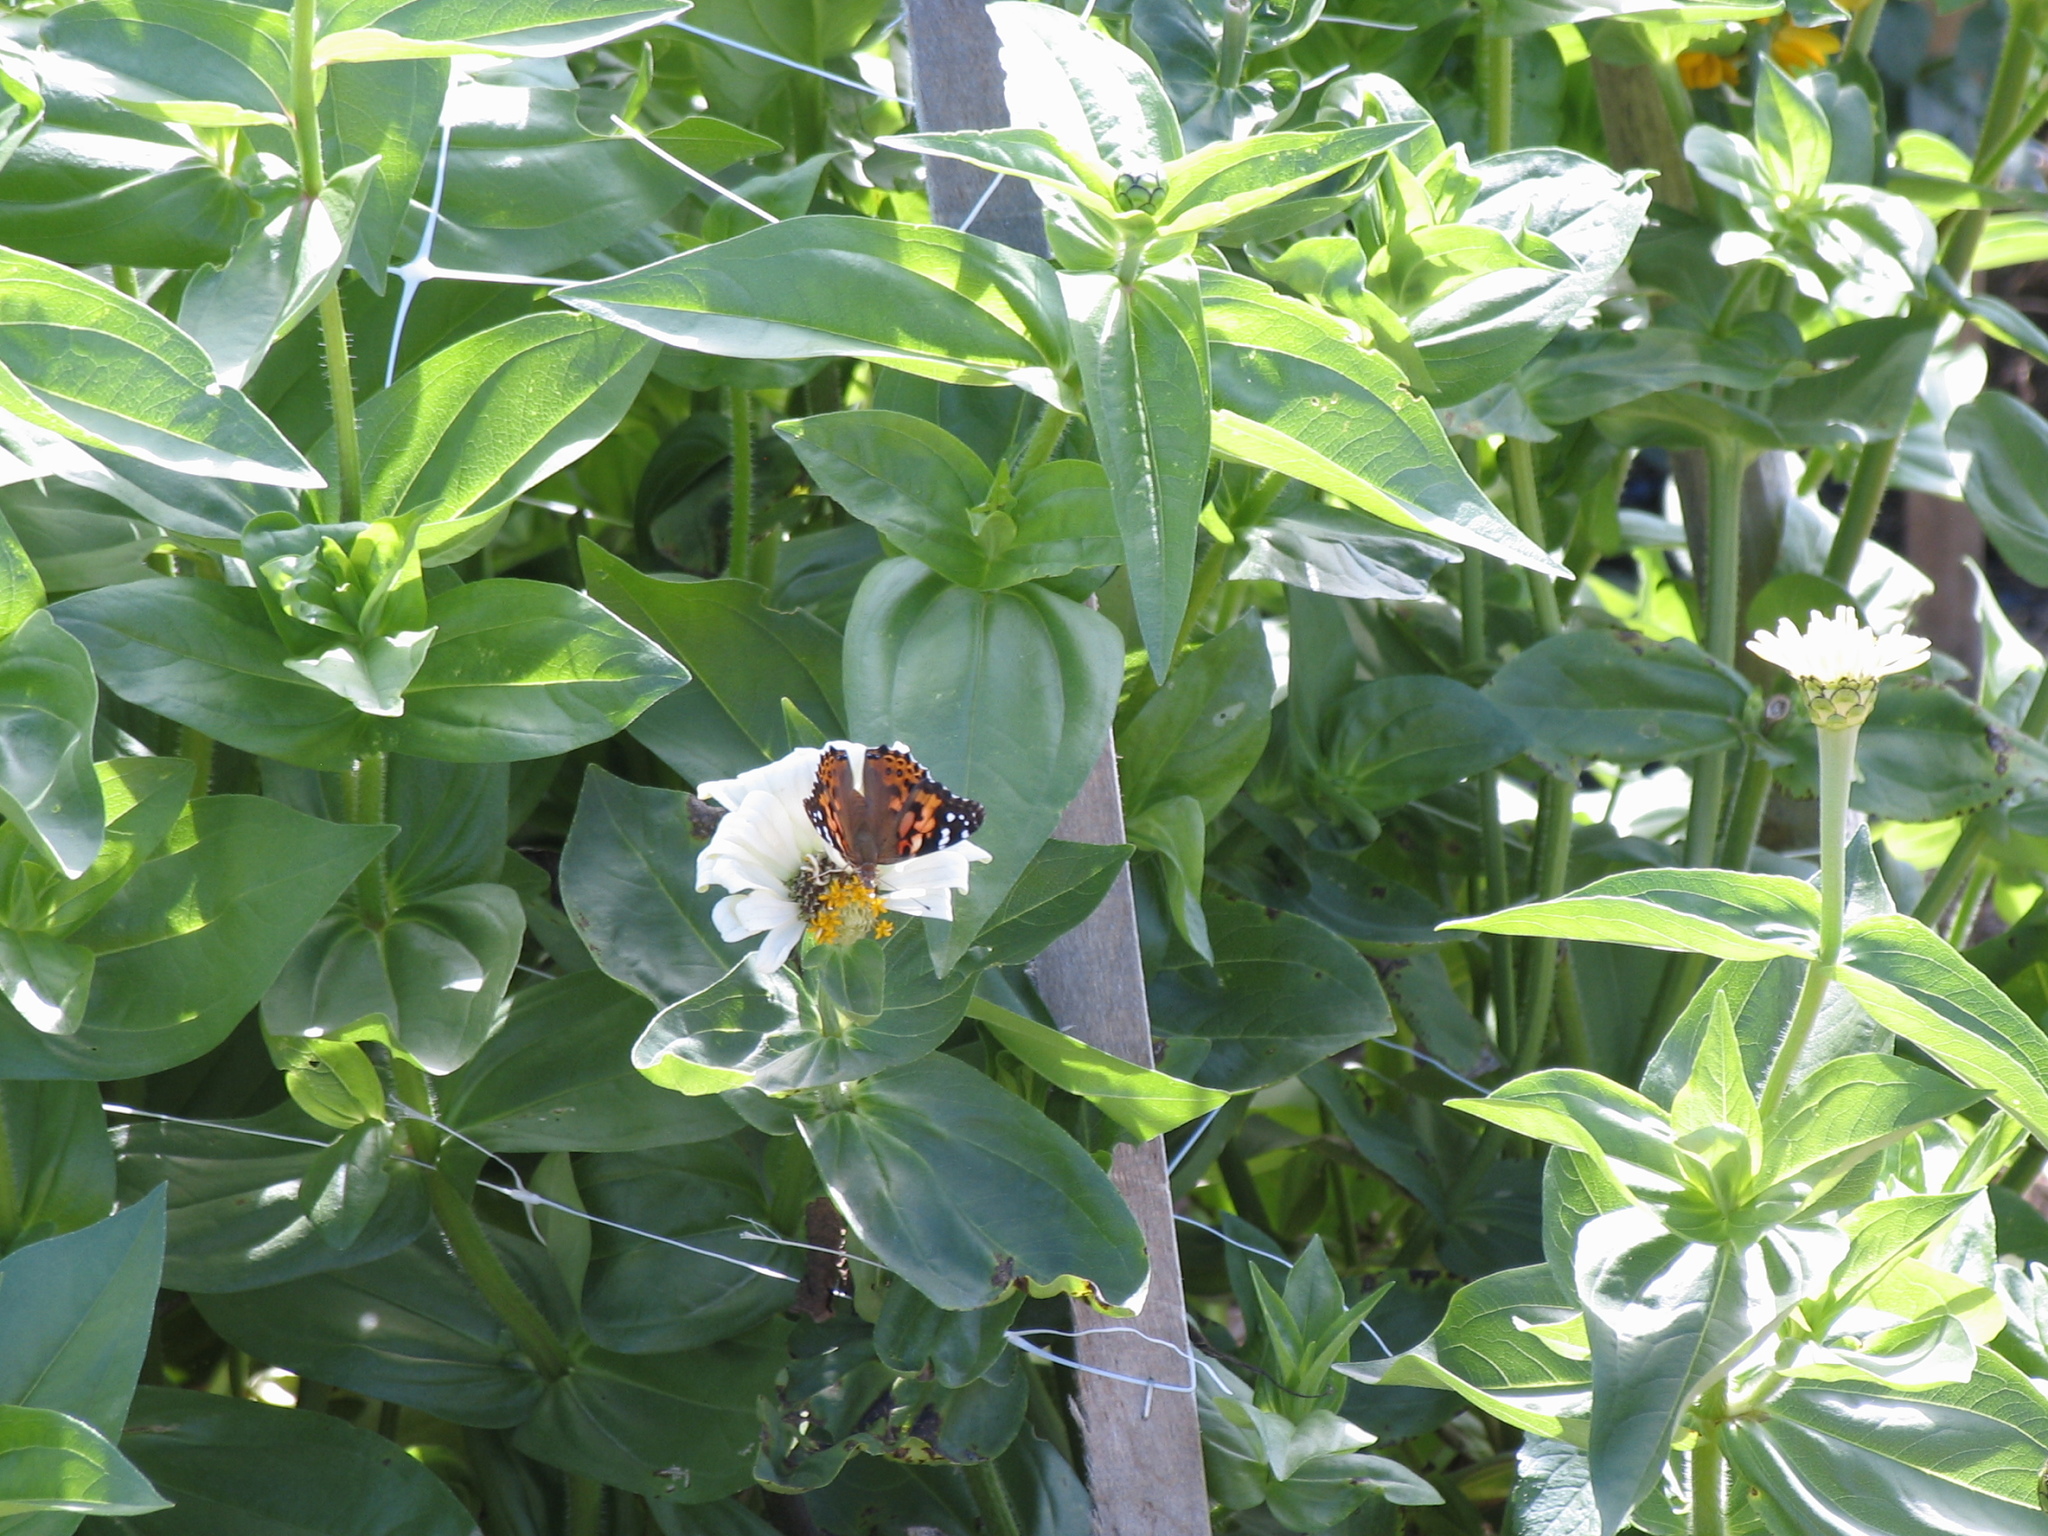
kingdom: Animalia
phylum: Arthropoda
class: Insecta
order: Lepidoptera
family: Nymphalidae
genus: Vanessa
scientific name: Vanessa cardui
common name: Painted lady
